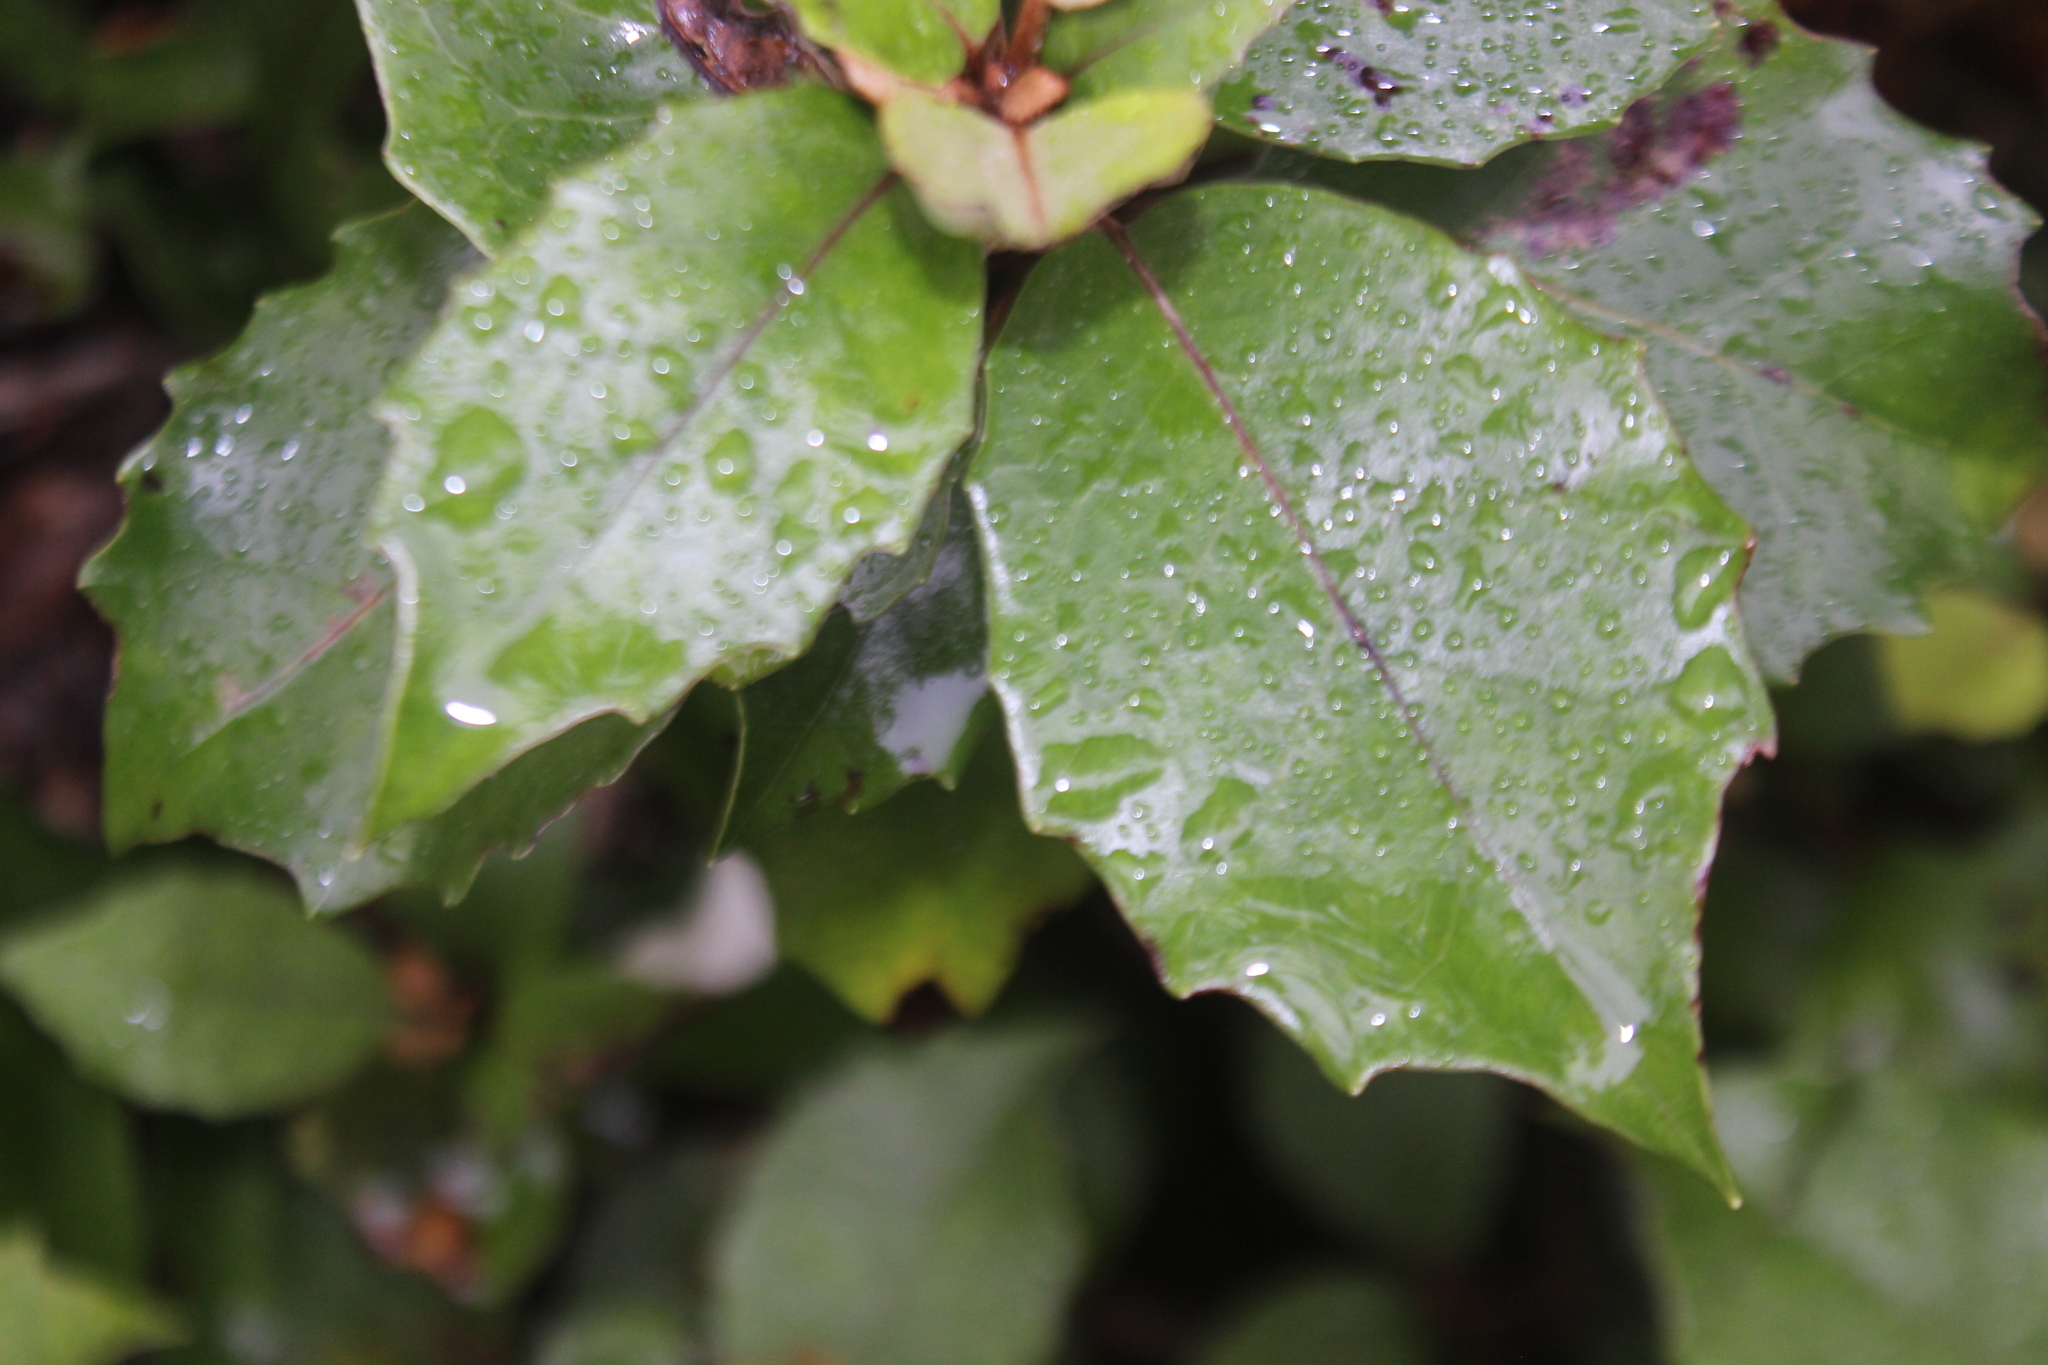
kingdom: Plantae
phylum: Tracheophyta
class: Magnoliopsida
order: Asterales
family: Asteraceae
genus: Olearia
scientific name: Olearia arborescens
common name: Glossy tree daisy
